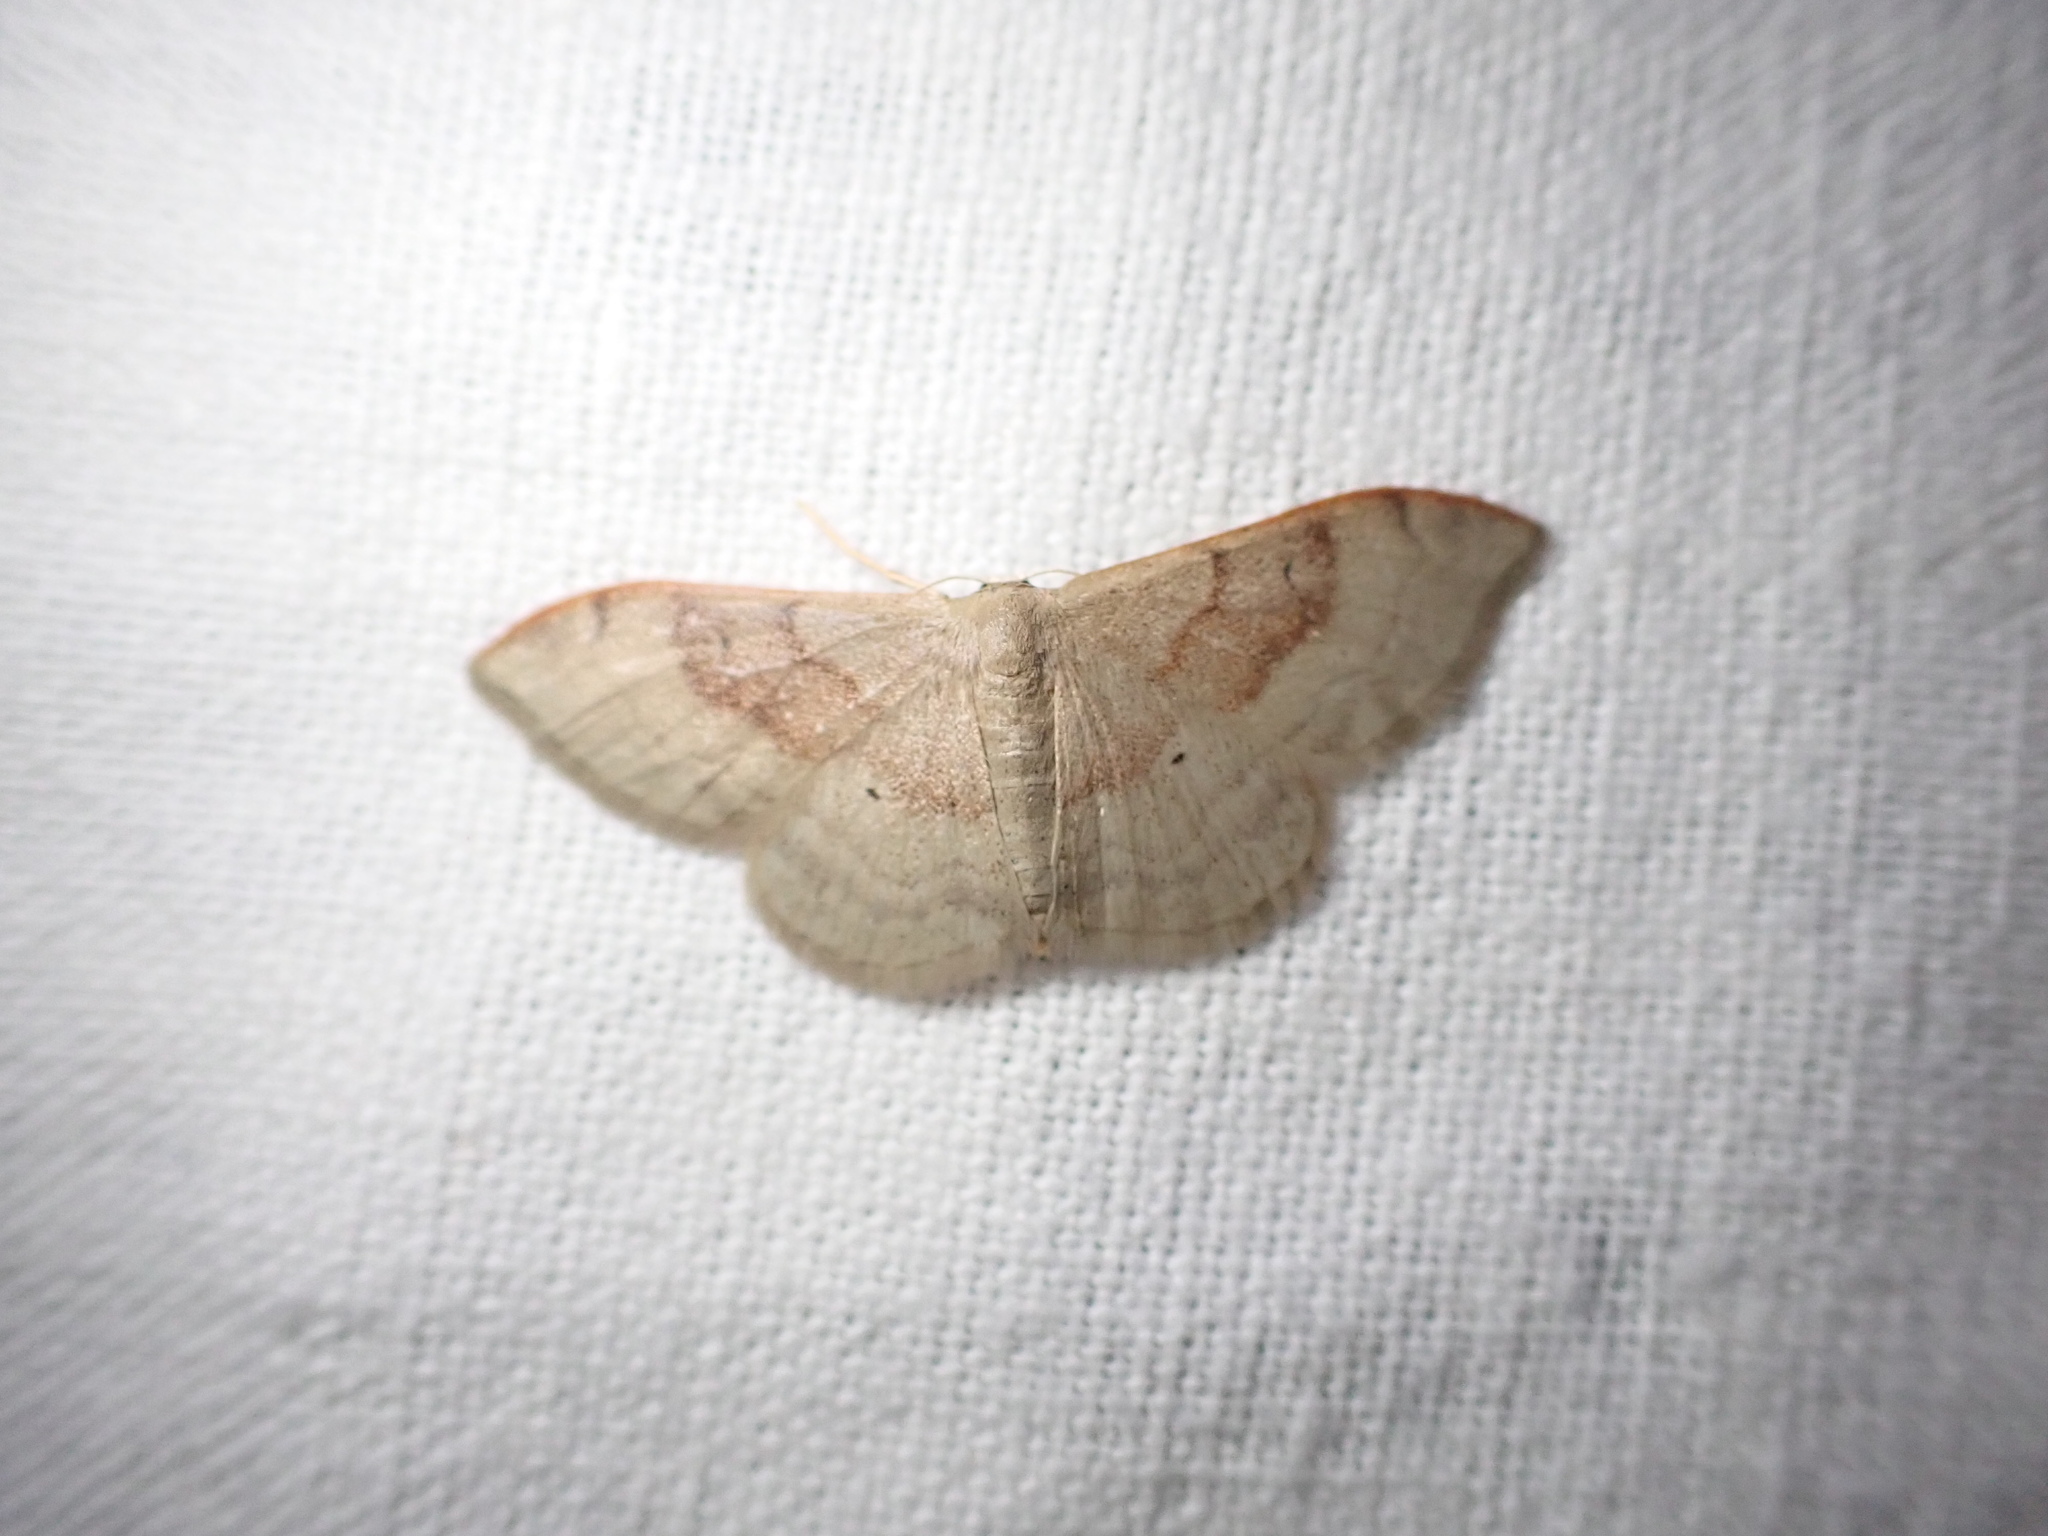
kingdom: Animalia
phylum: Arthropoda
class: Insecta
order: Lepidoptera
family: Geometridae
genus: Idaea
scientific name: Idaea degeneraria
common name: Portland ribbon wave
